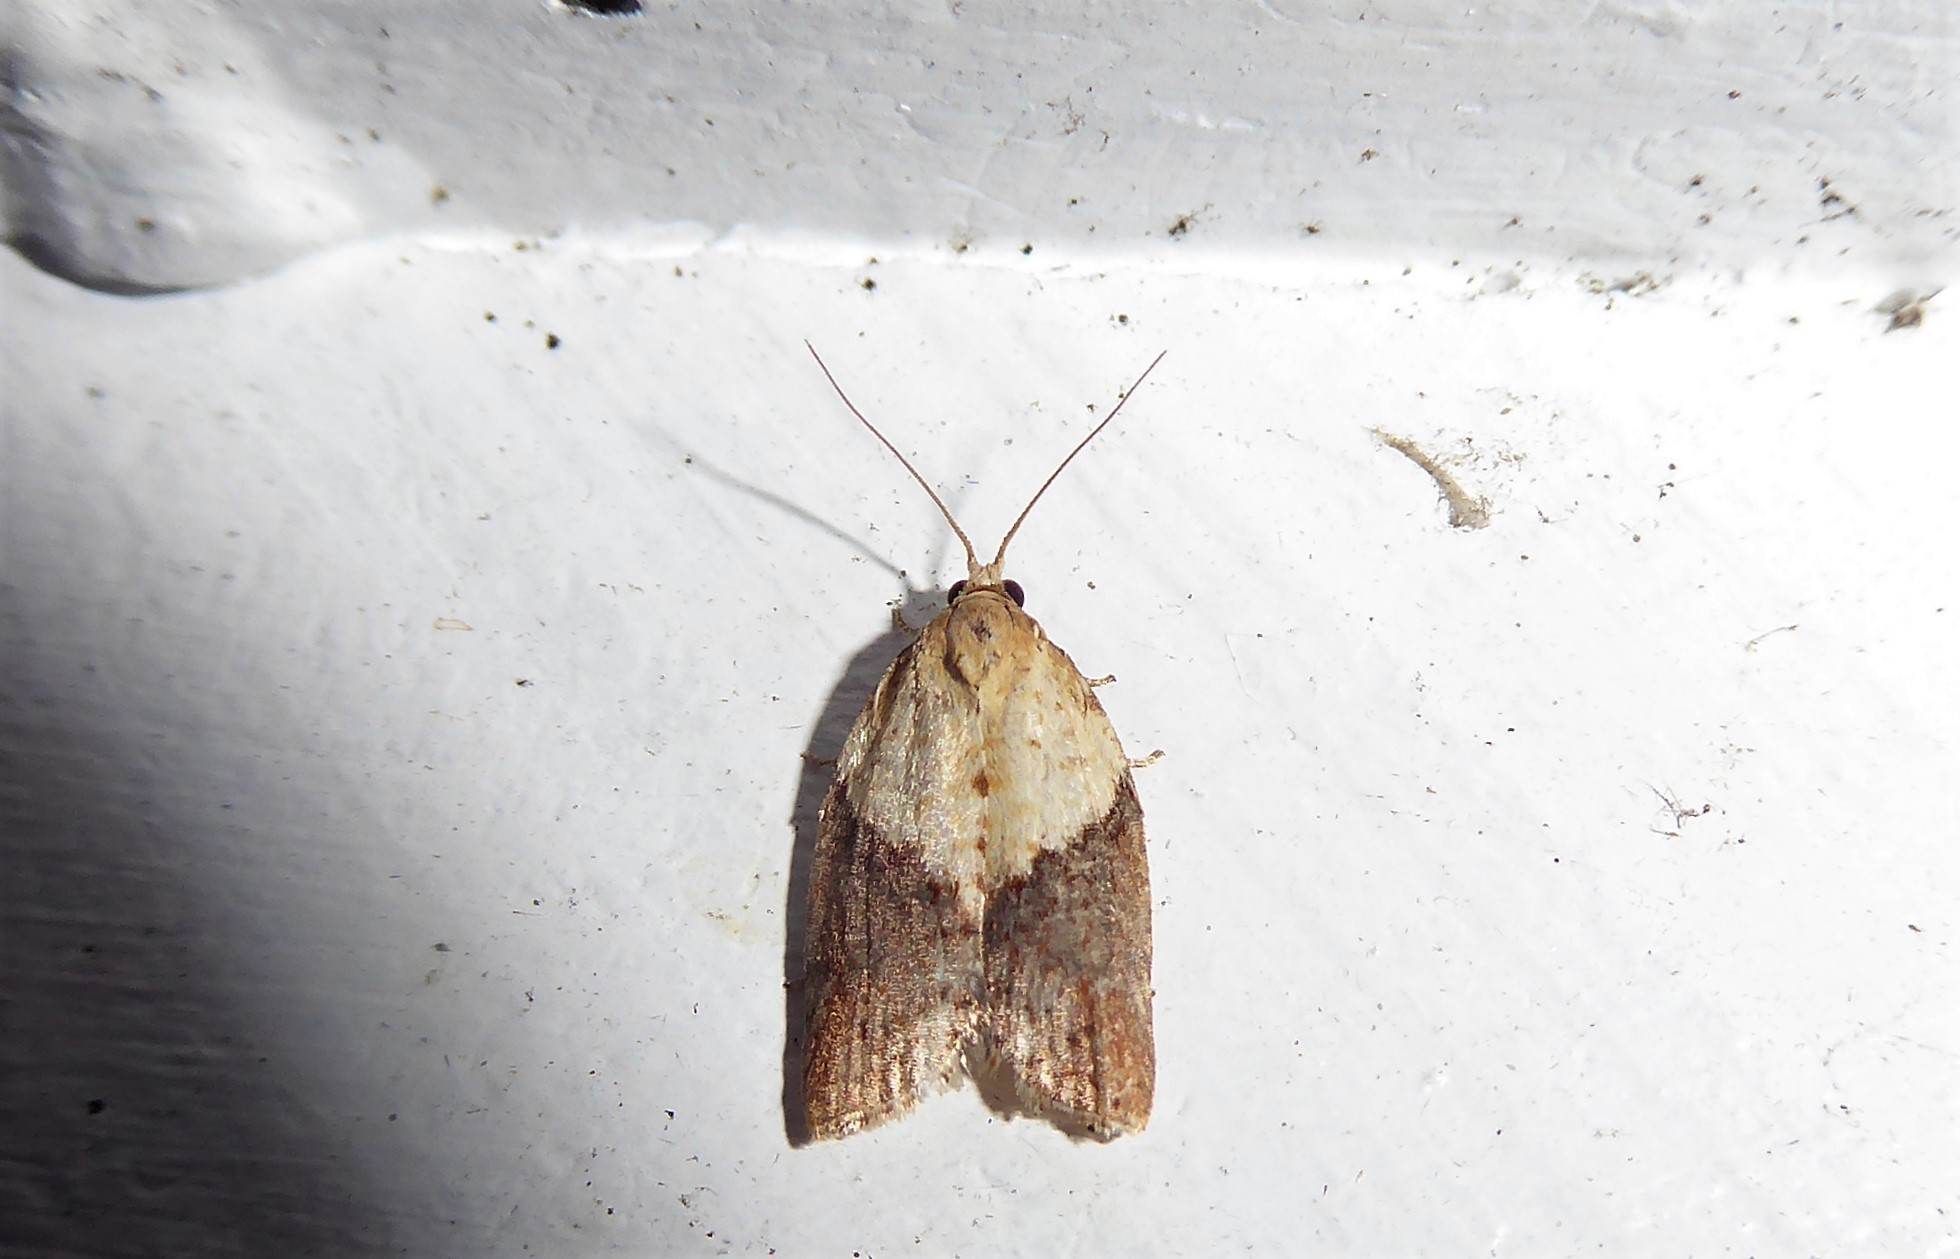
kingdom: Animalia
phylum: Arthropoda
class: Insecta
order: Lepidoptera
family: Tortricidae
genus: Epiphyas
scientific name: Epiphyas postvittana
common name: Light brown apple moth
